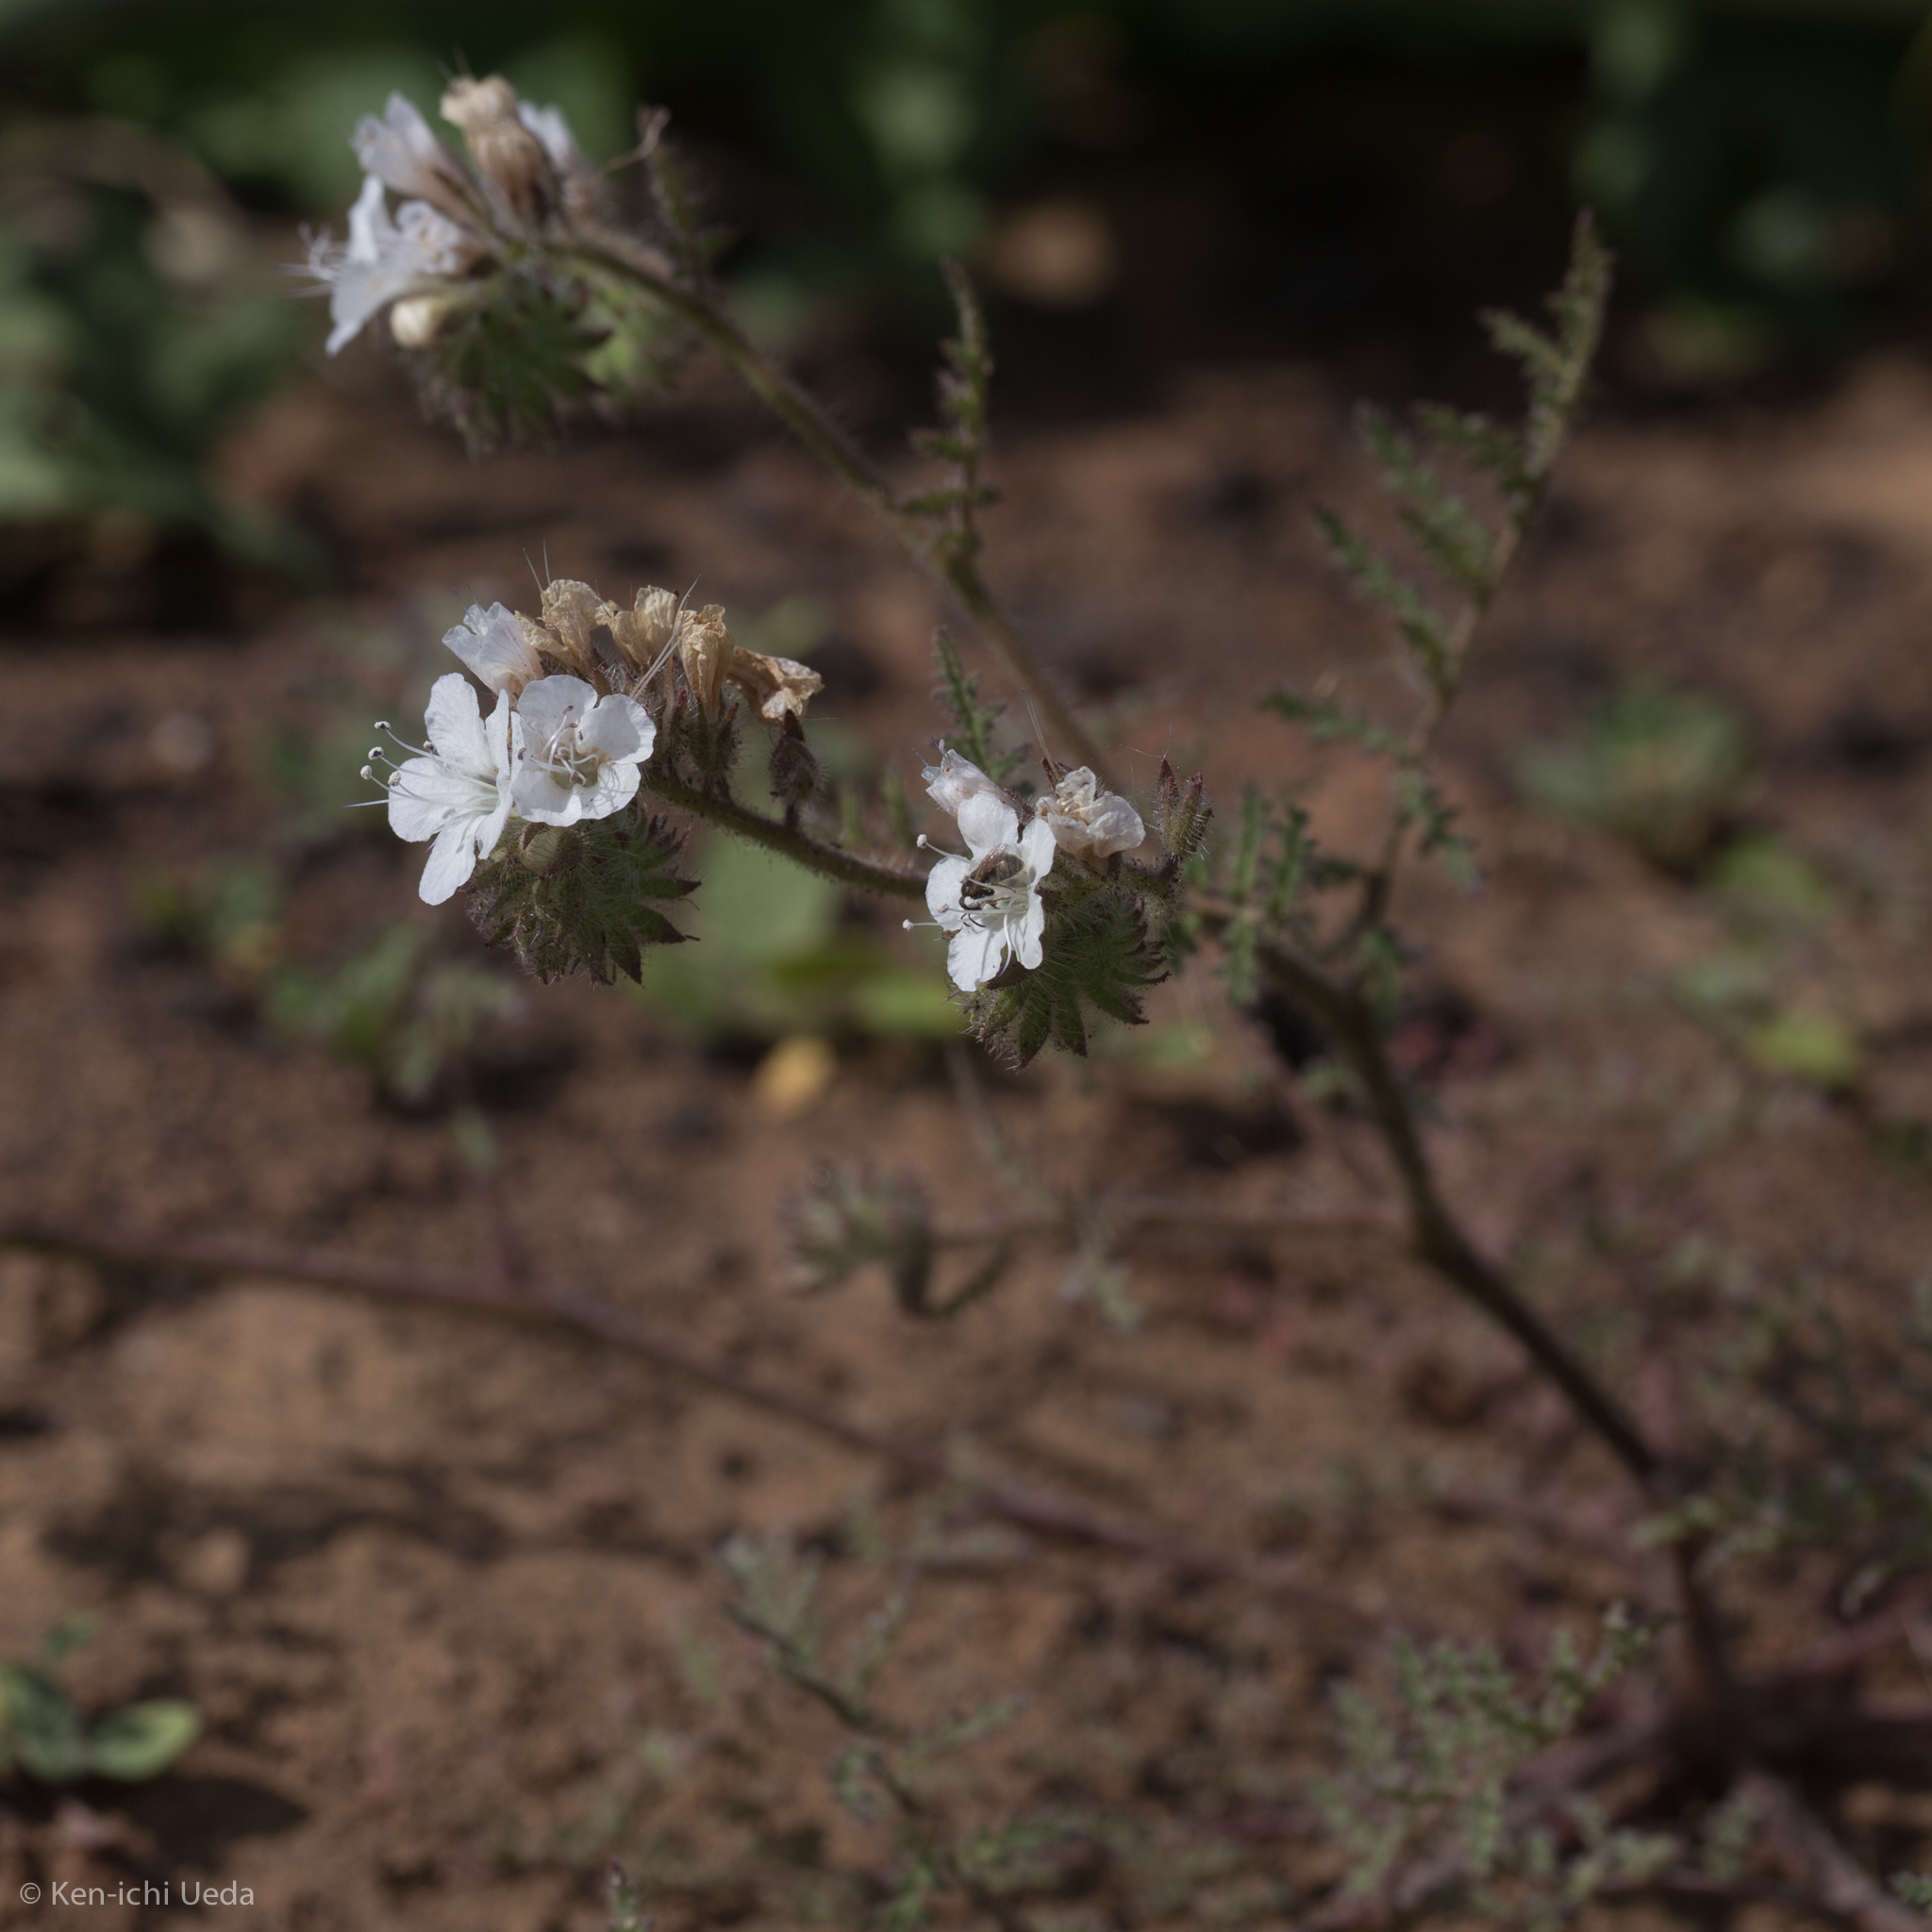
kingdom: Plantae
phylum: Tracheophyta
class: Magnoliopsida
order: Boraginales
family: Hydrophyllaceae
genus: Phacelia
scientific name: Phacelia distans
